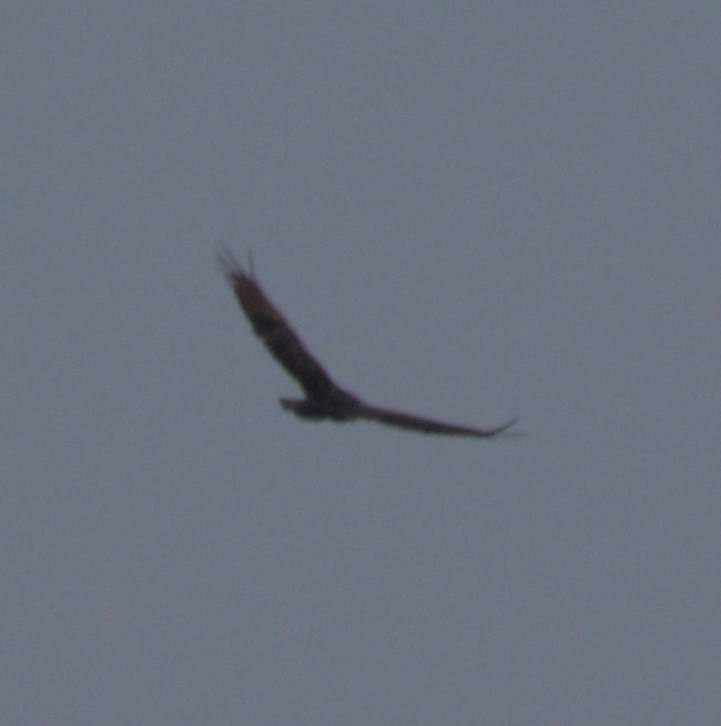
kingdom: Animalia
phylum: Chordata
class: Aves
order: Accipitriformes
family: Cathartidae
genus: Cathartes
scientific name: Cathartes aura
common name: Turkey vulture
